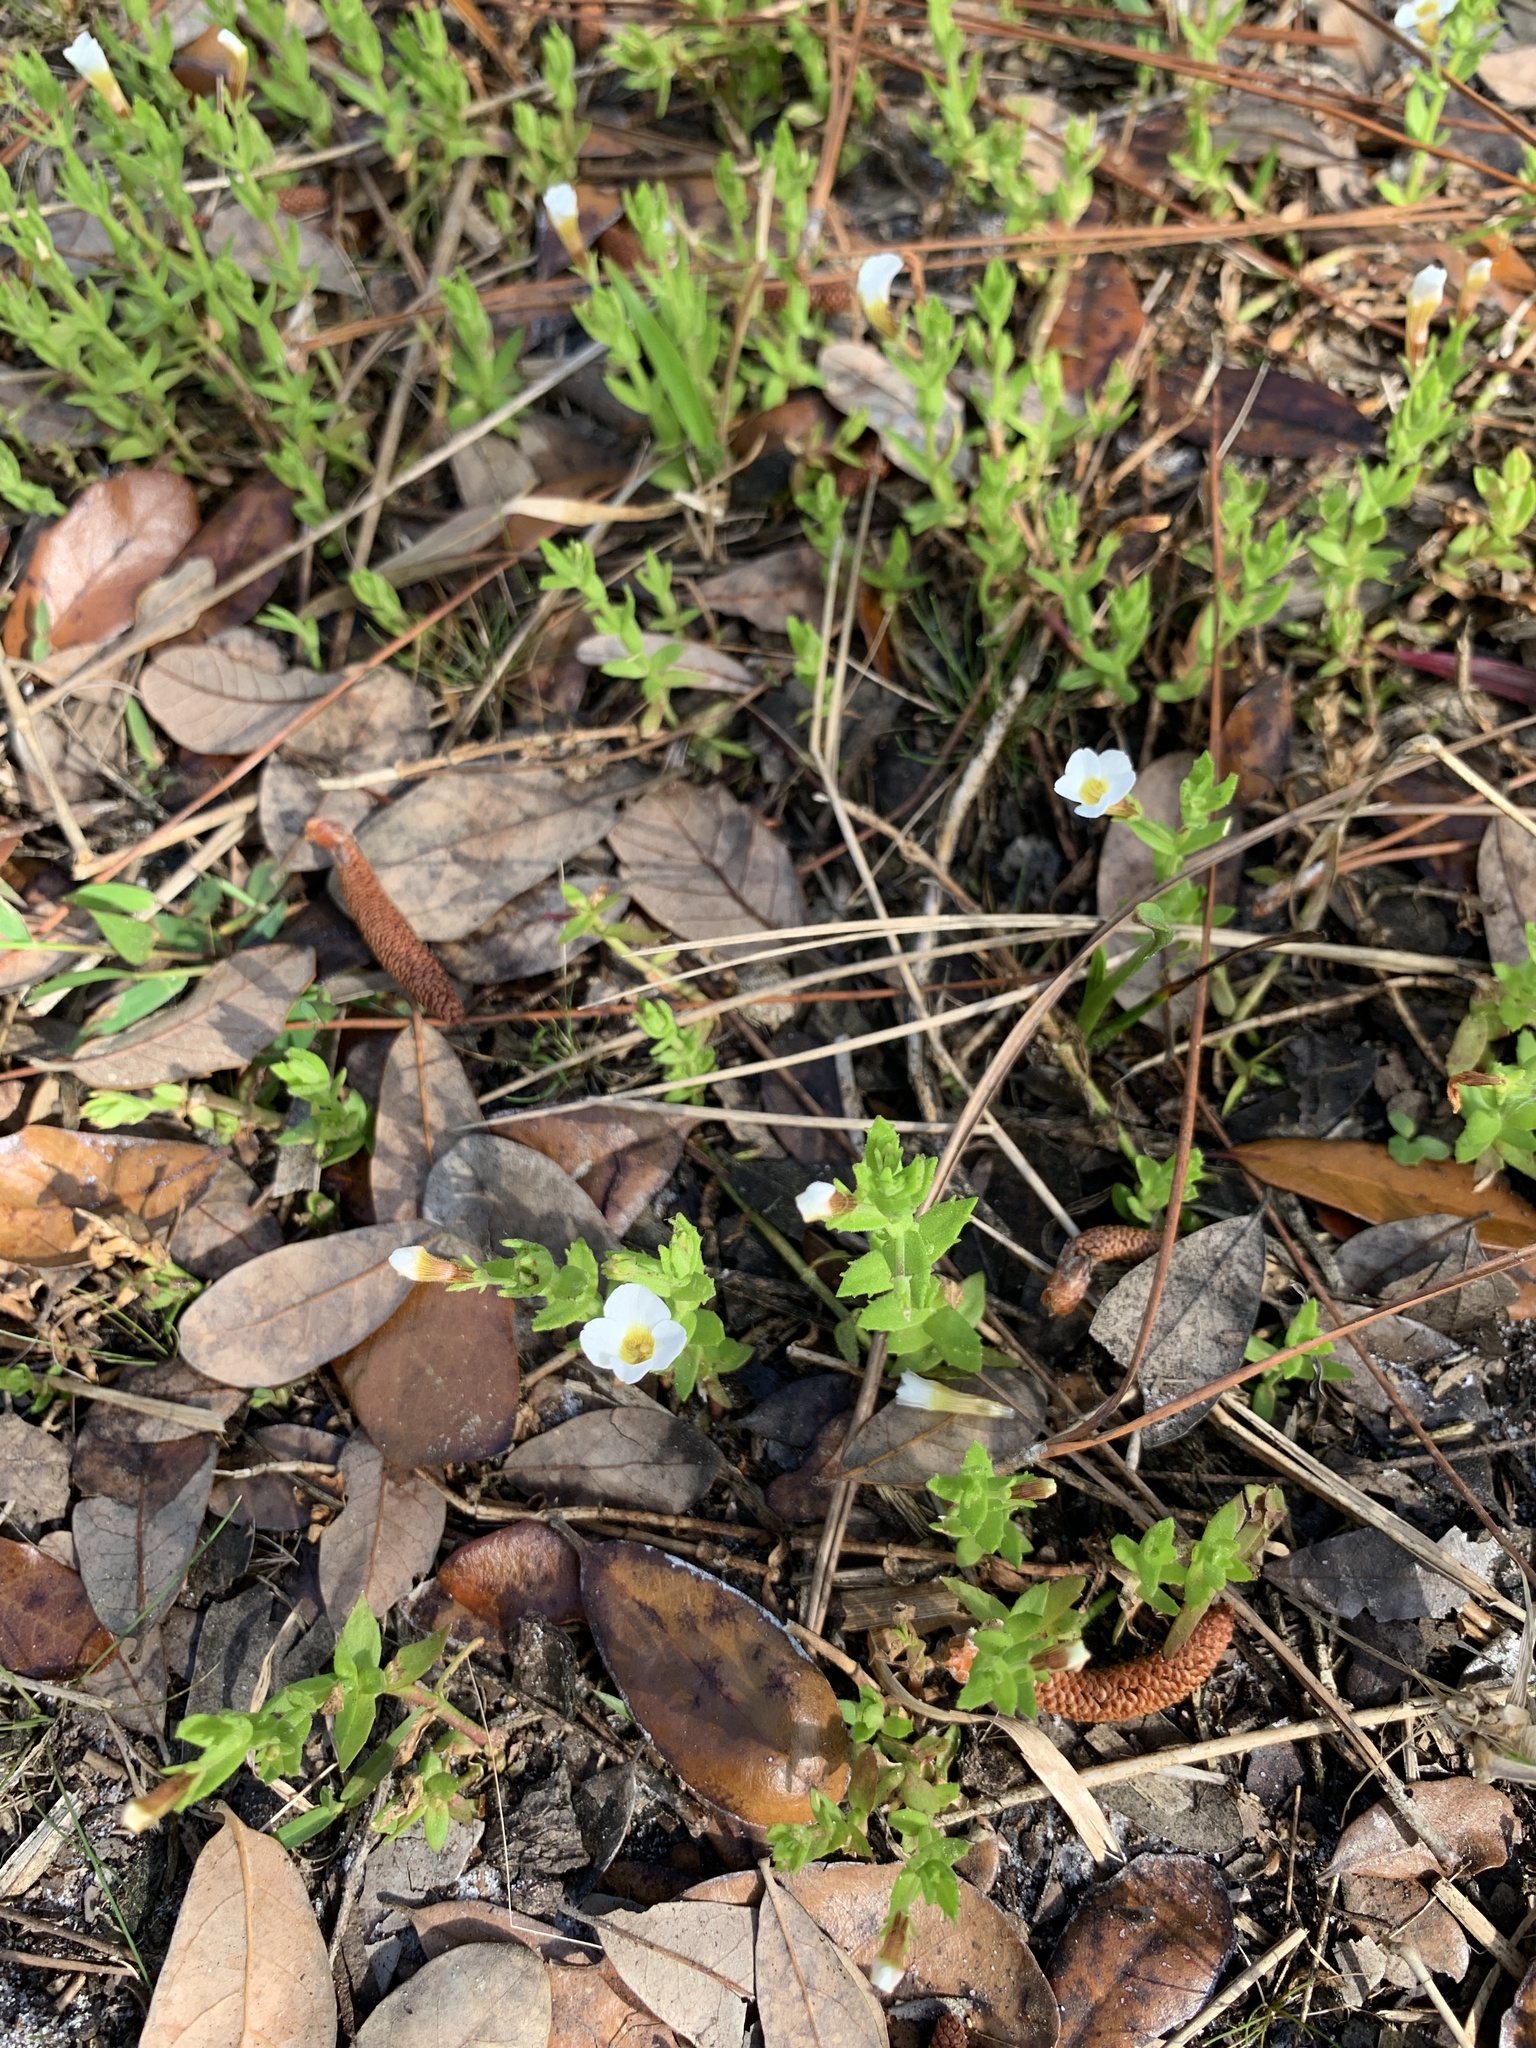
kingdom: Plantae
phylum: Tracheophyta
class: Magnoliopsida
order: Lamiales
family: Plantaginaceae
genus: Gratiola
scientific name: Gratiola ramosa
